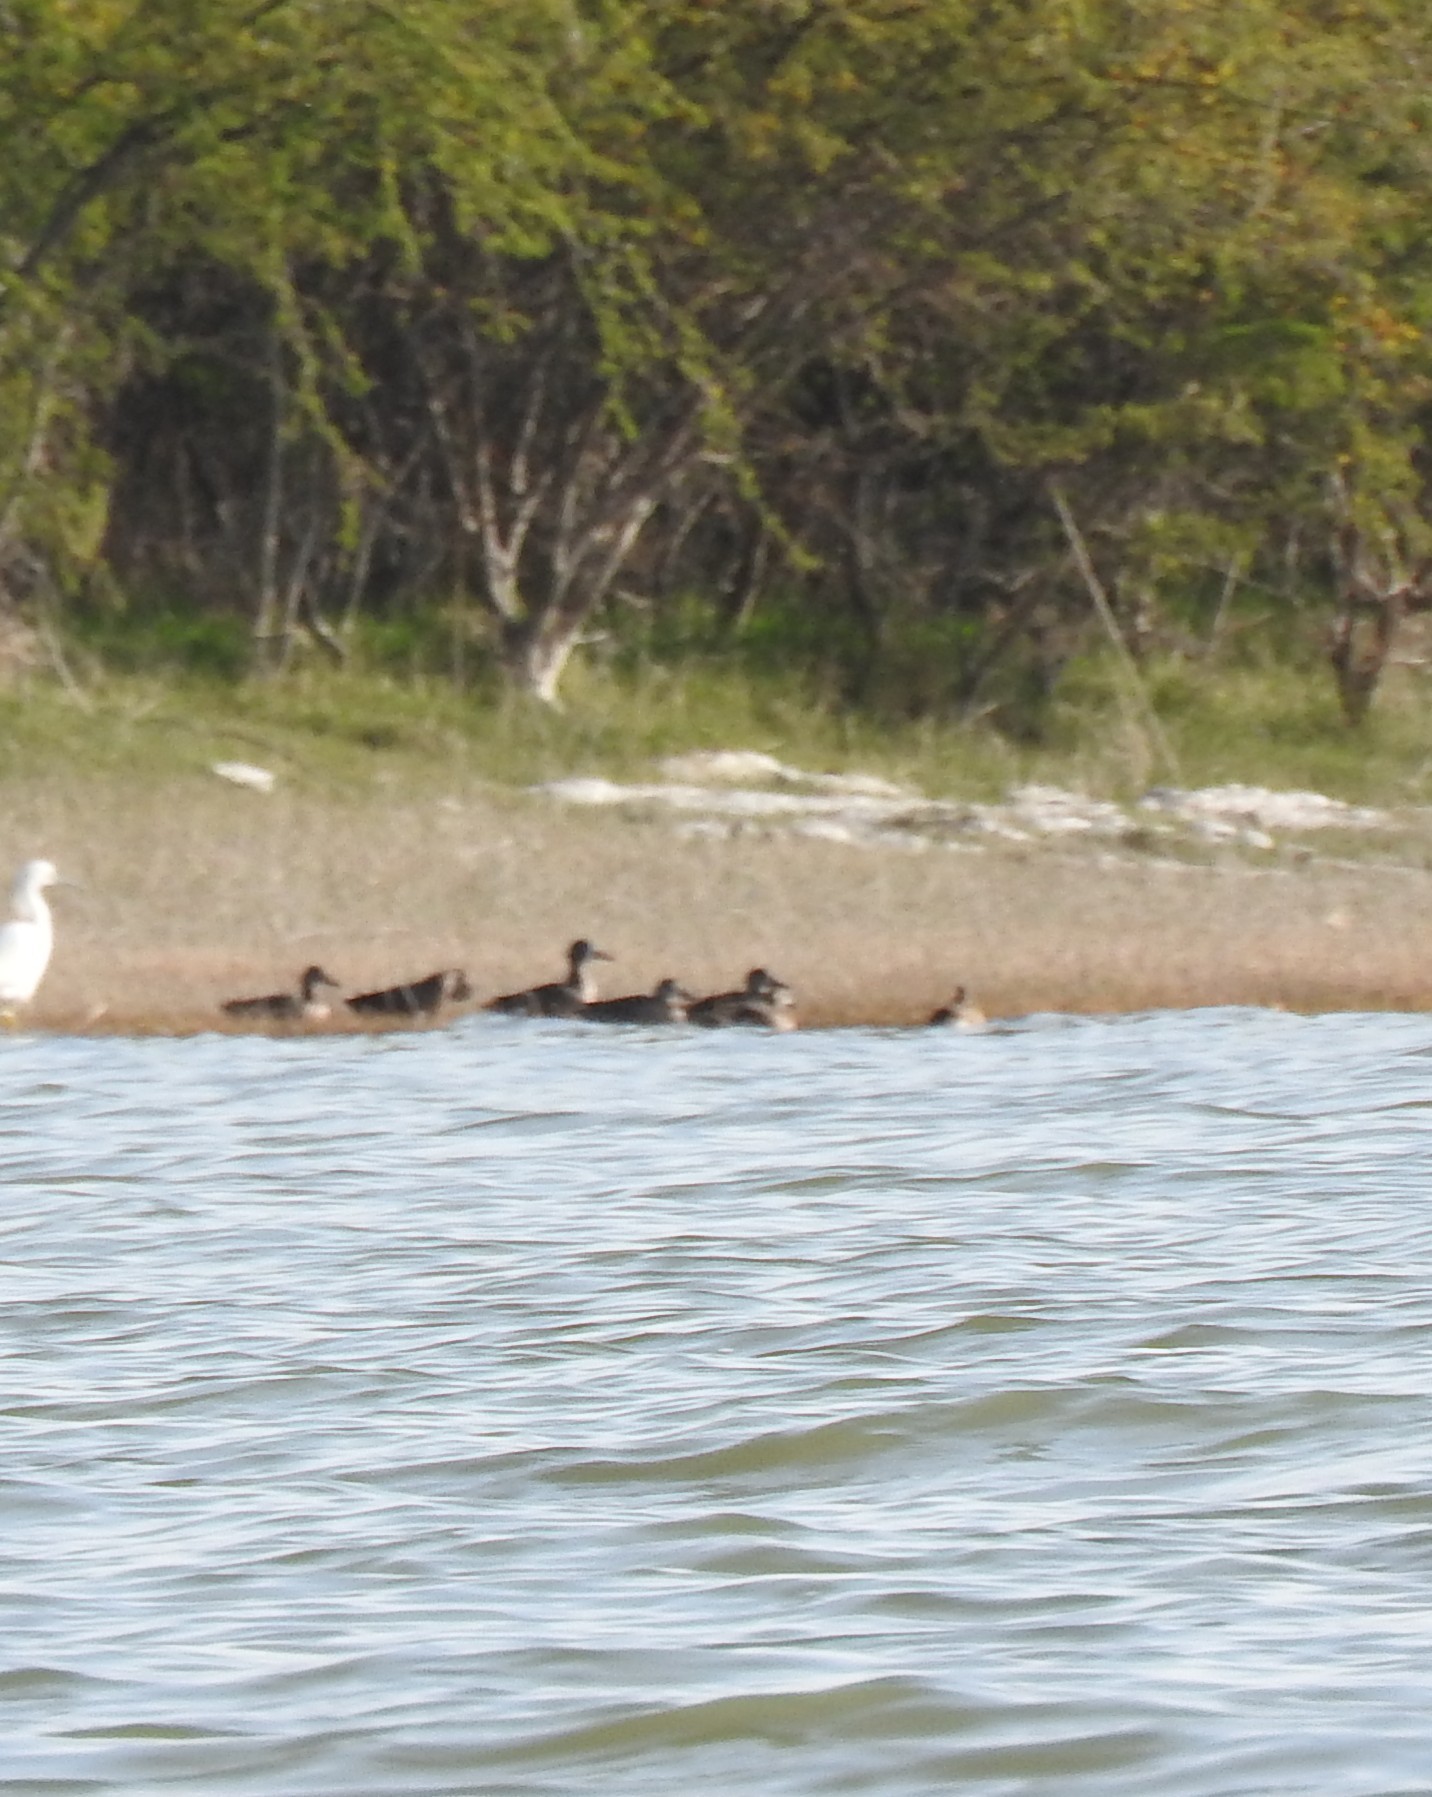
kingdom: Animalia
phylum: Chordata
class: Aves
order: Anseriformes
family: Anatidae
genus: Spatula
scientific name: Spatula discors
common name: Blue-winged teal
